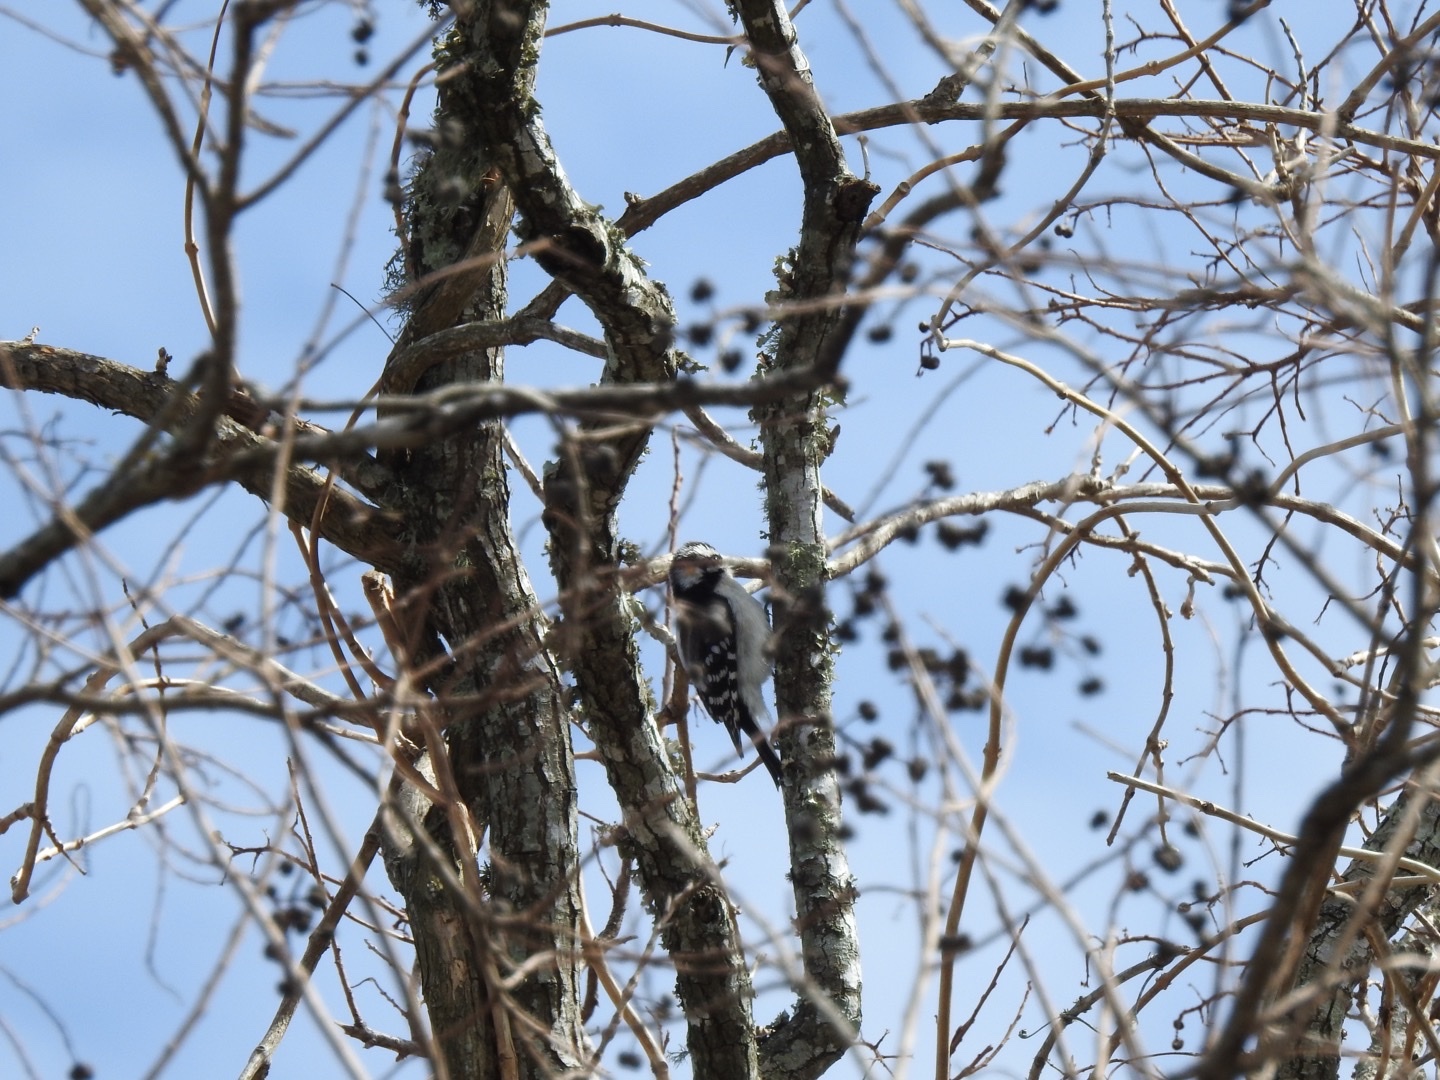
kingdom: Animalia
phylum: Chordata
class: Aves
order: Piciformes
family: Picidae
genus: Dryobates
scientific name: Dryobates pubescens
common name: Downy woodpecker
